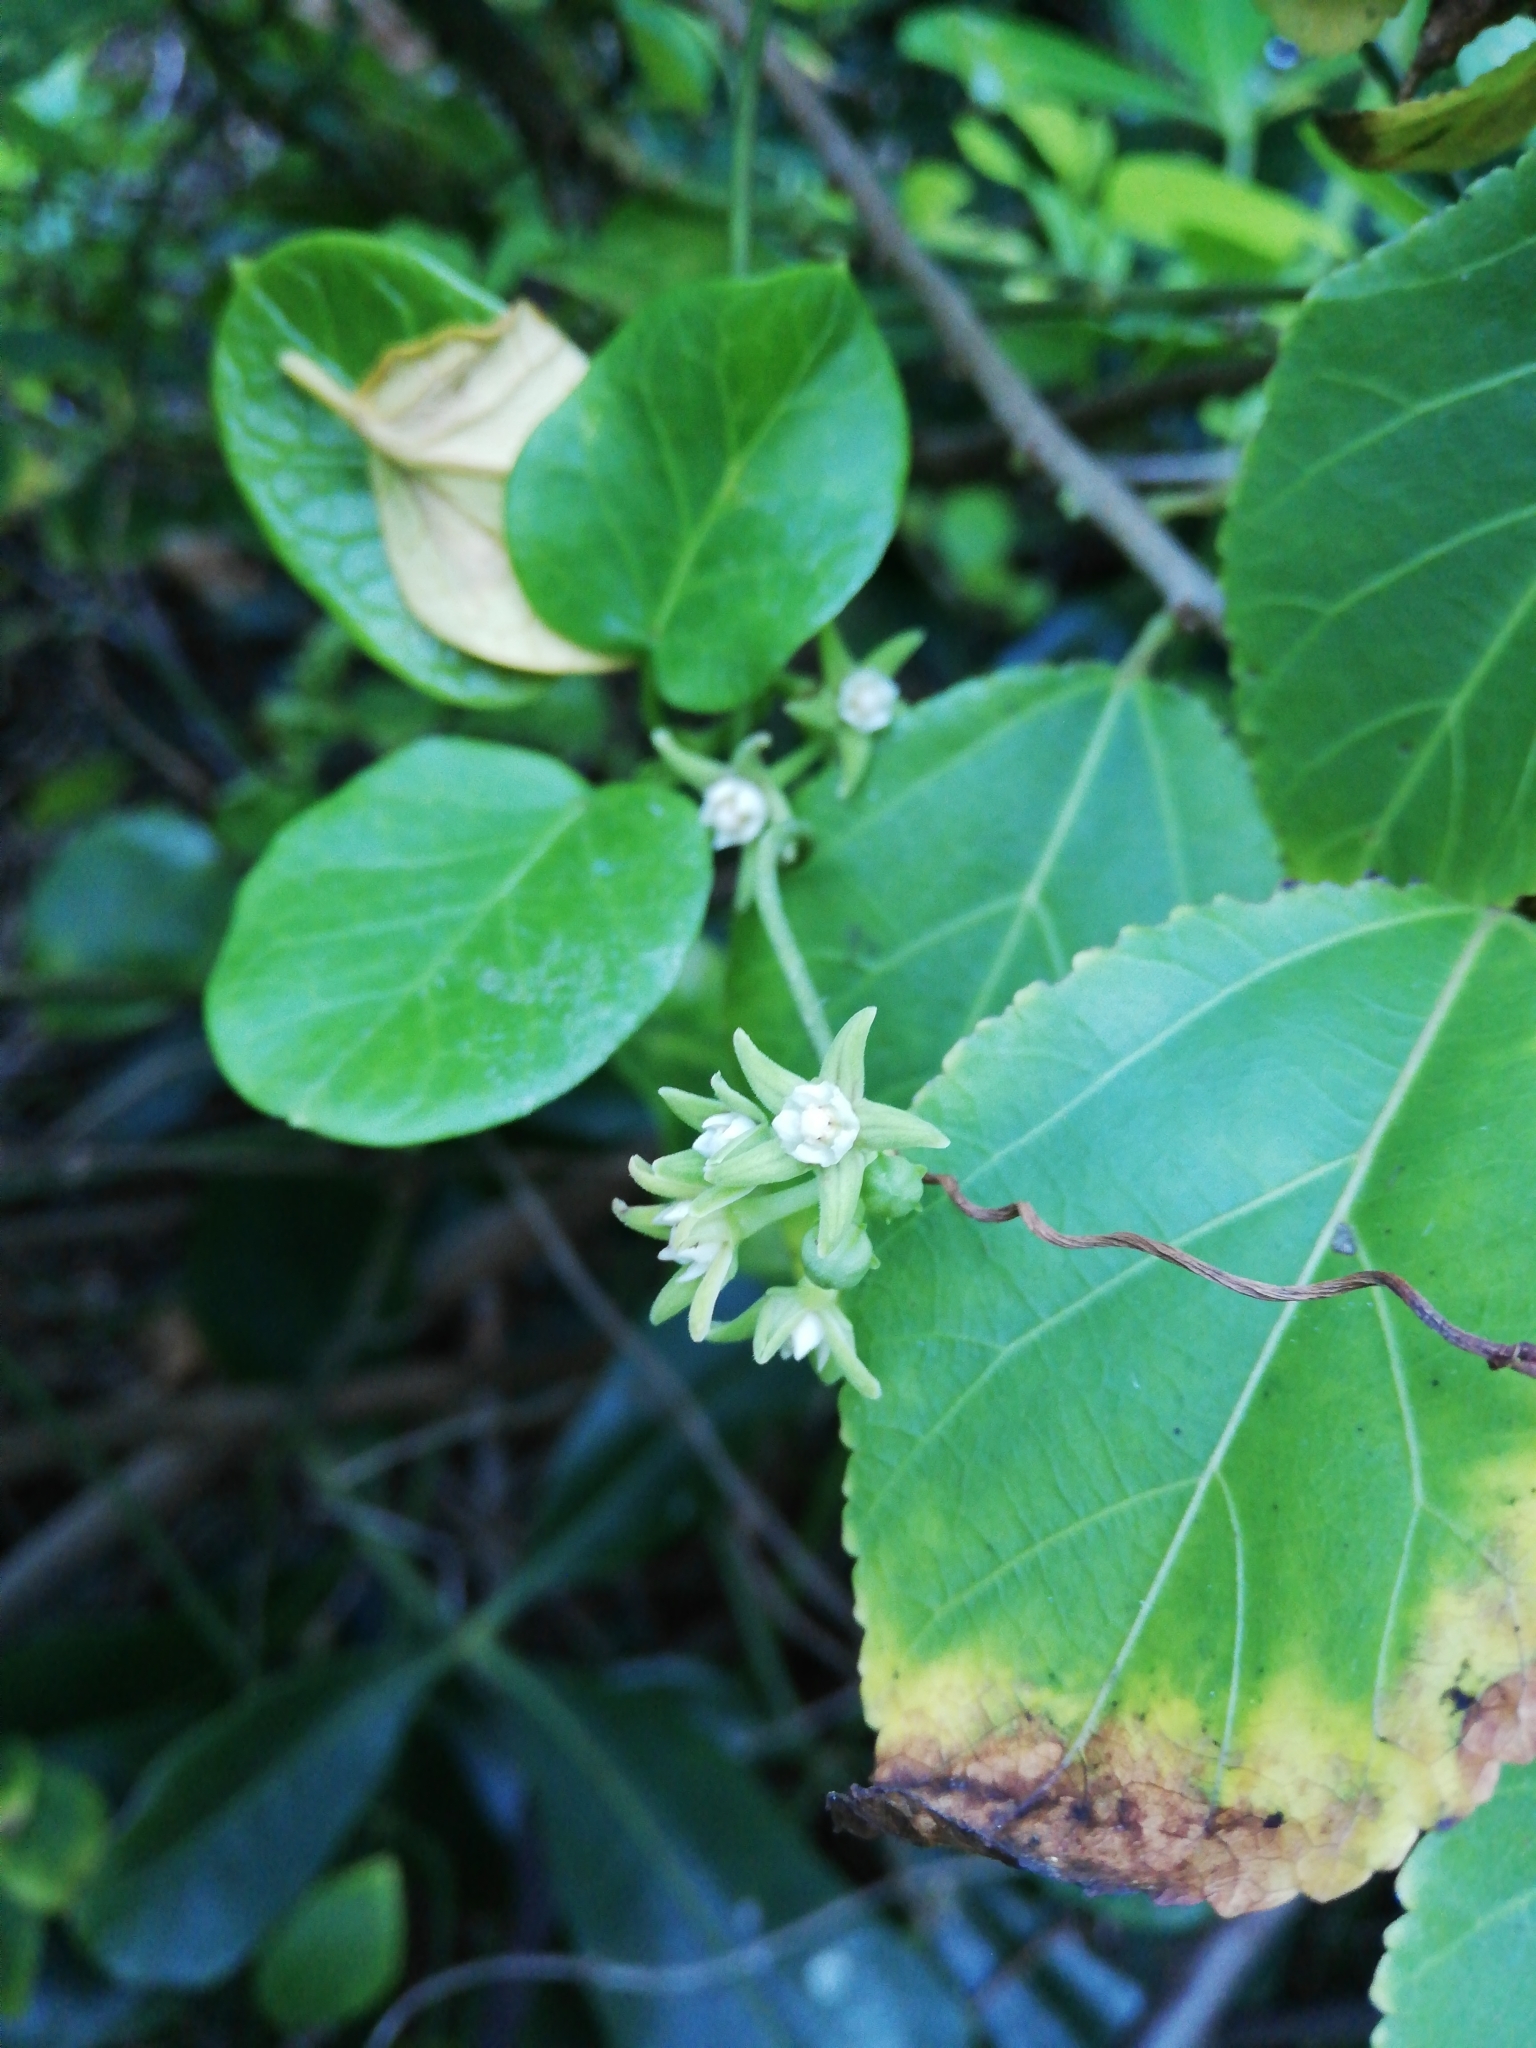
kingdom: Plantae
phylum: Tracheophyta
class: Magnoliopsida
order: Gentianales
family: Apocynaceae
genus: Cynanchum
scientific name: Cynanchum obtusifolium
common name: Monkey-rope
